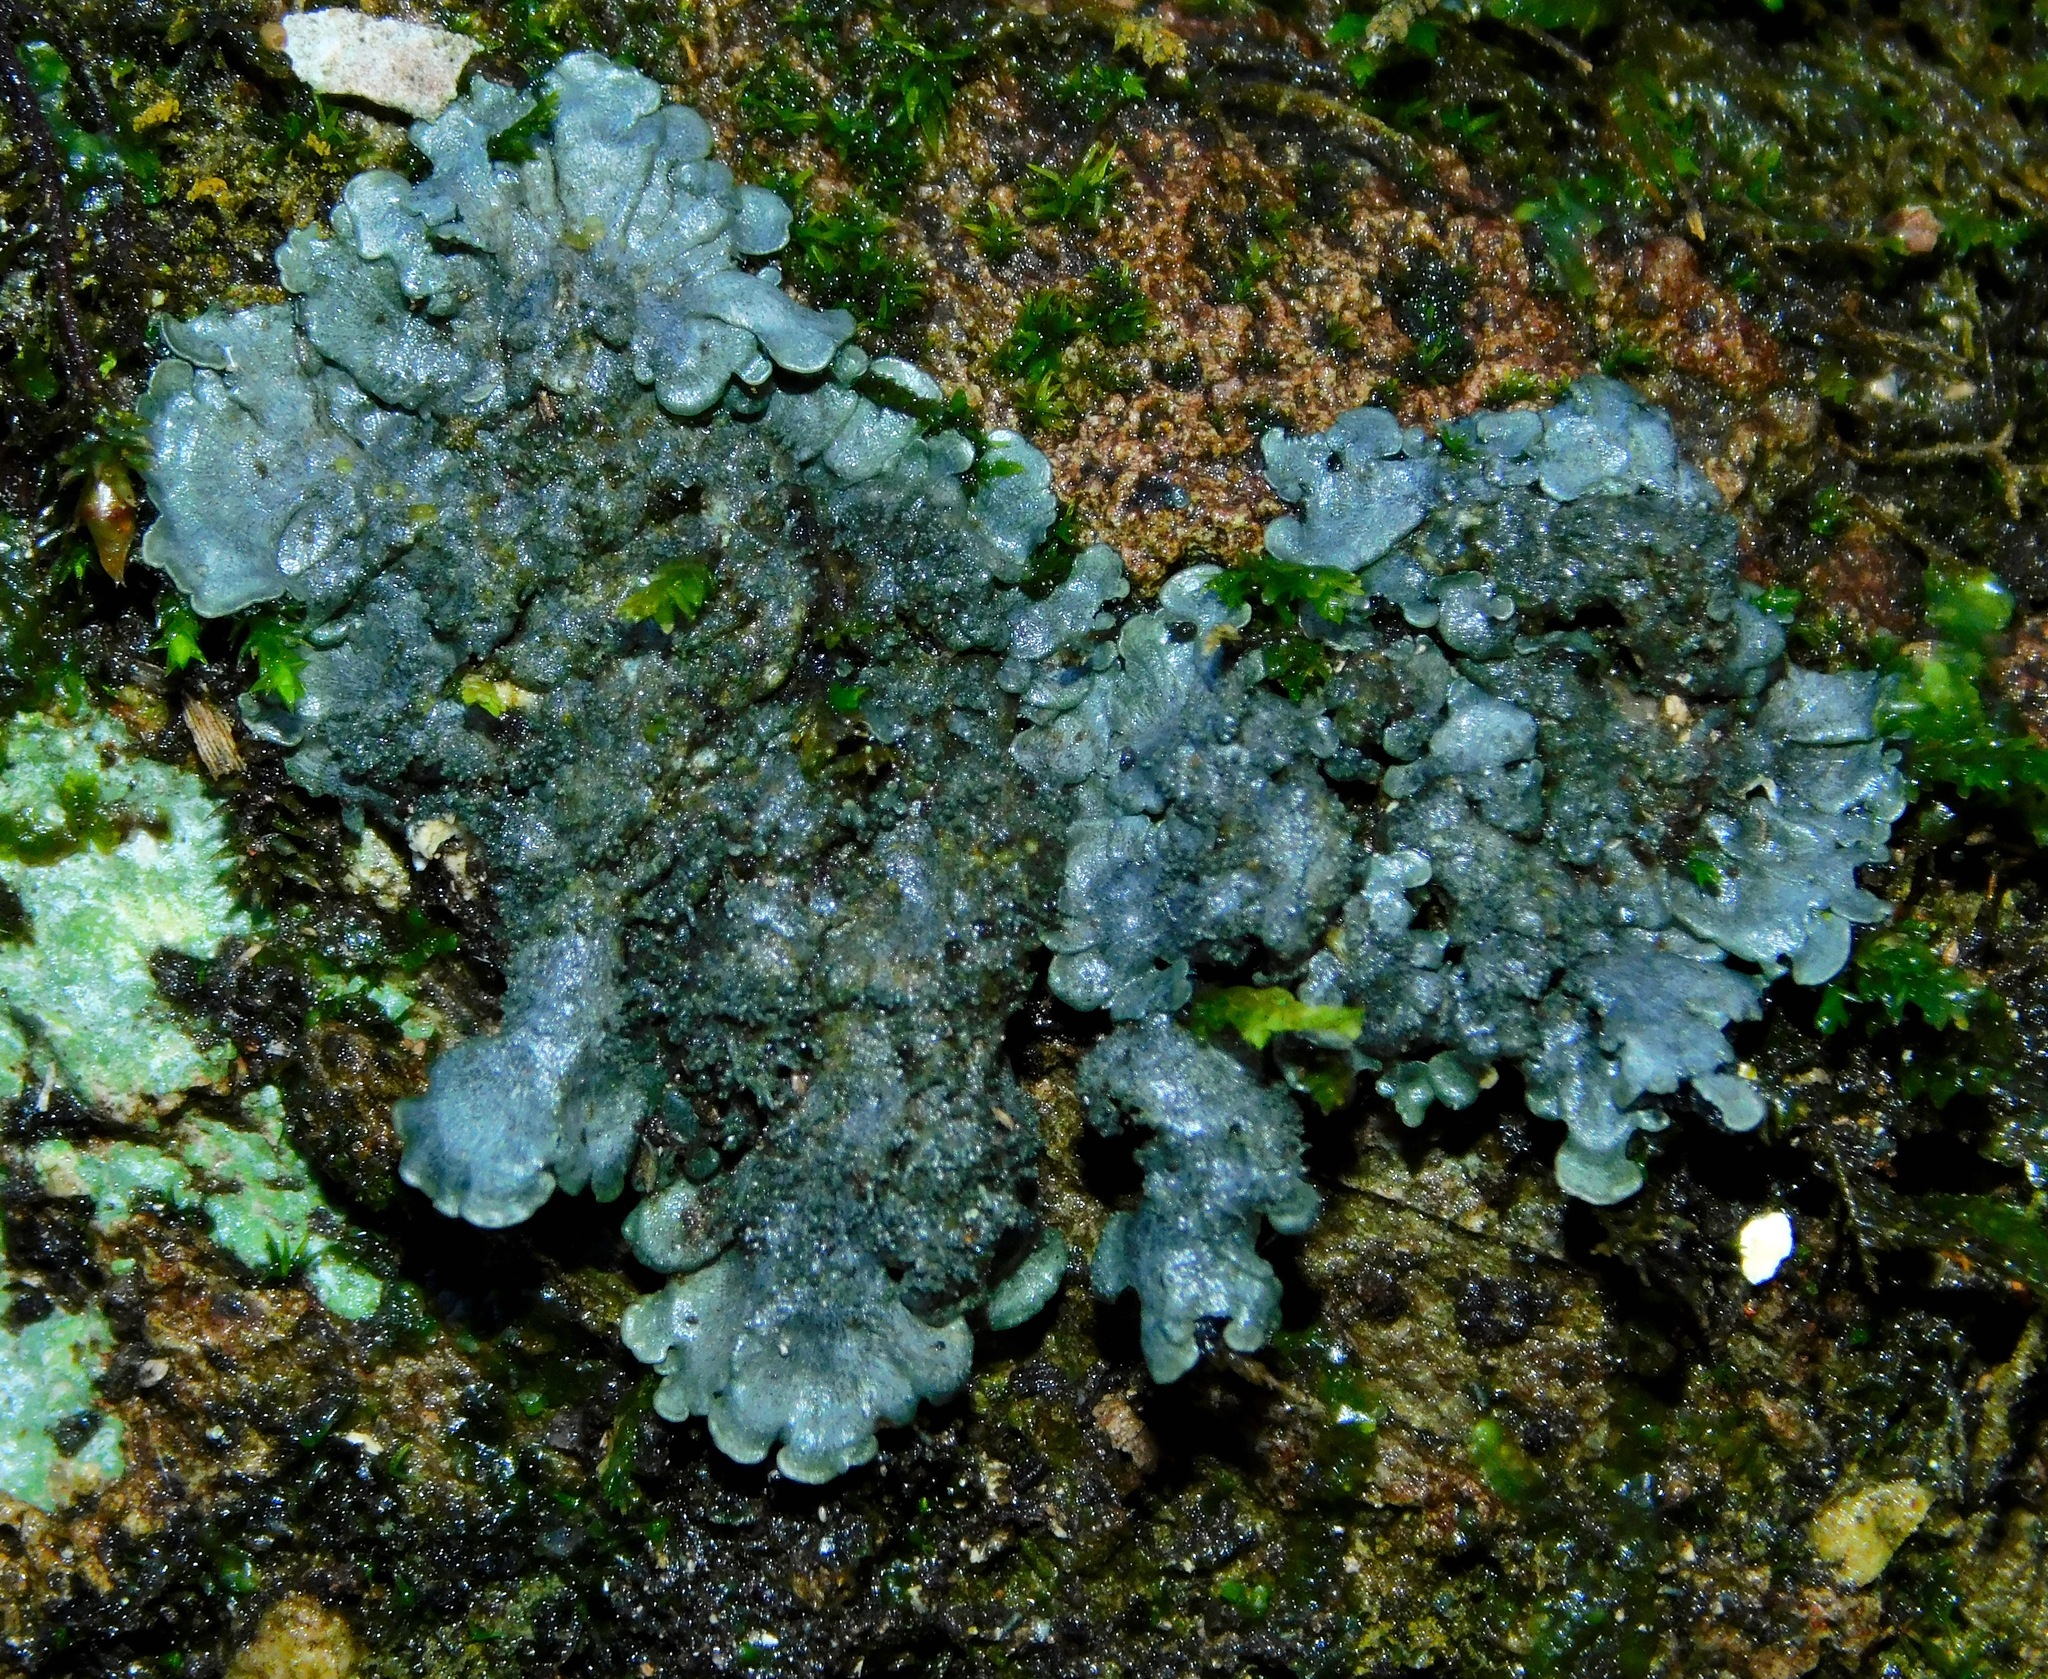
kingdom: Fungi
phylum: Ascomycota
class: Lecanoromycetes
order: Peltigerales
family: Coccocarpiaceae
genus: Coccocarpia
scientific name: Coccocarpia palmicola
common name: Salted shell lichen
